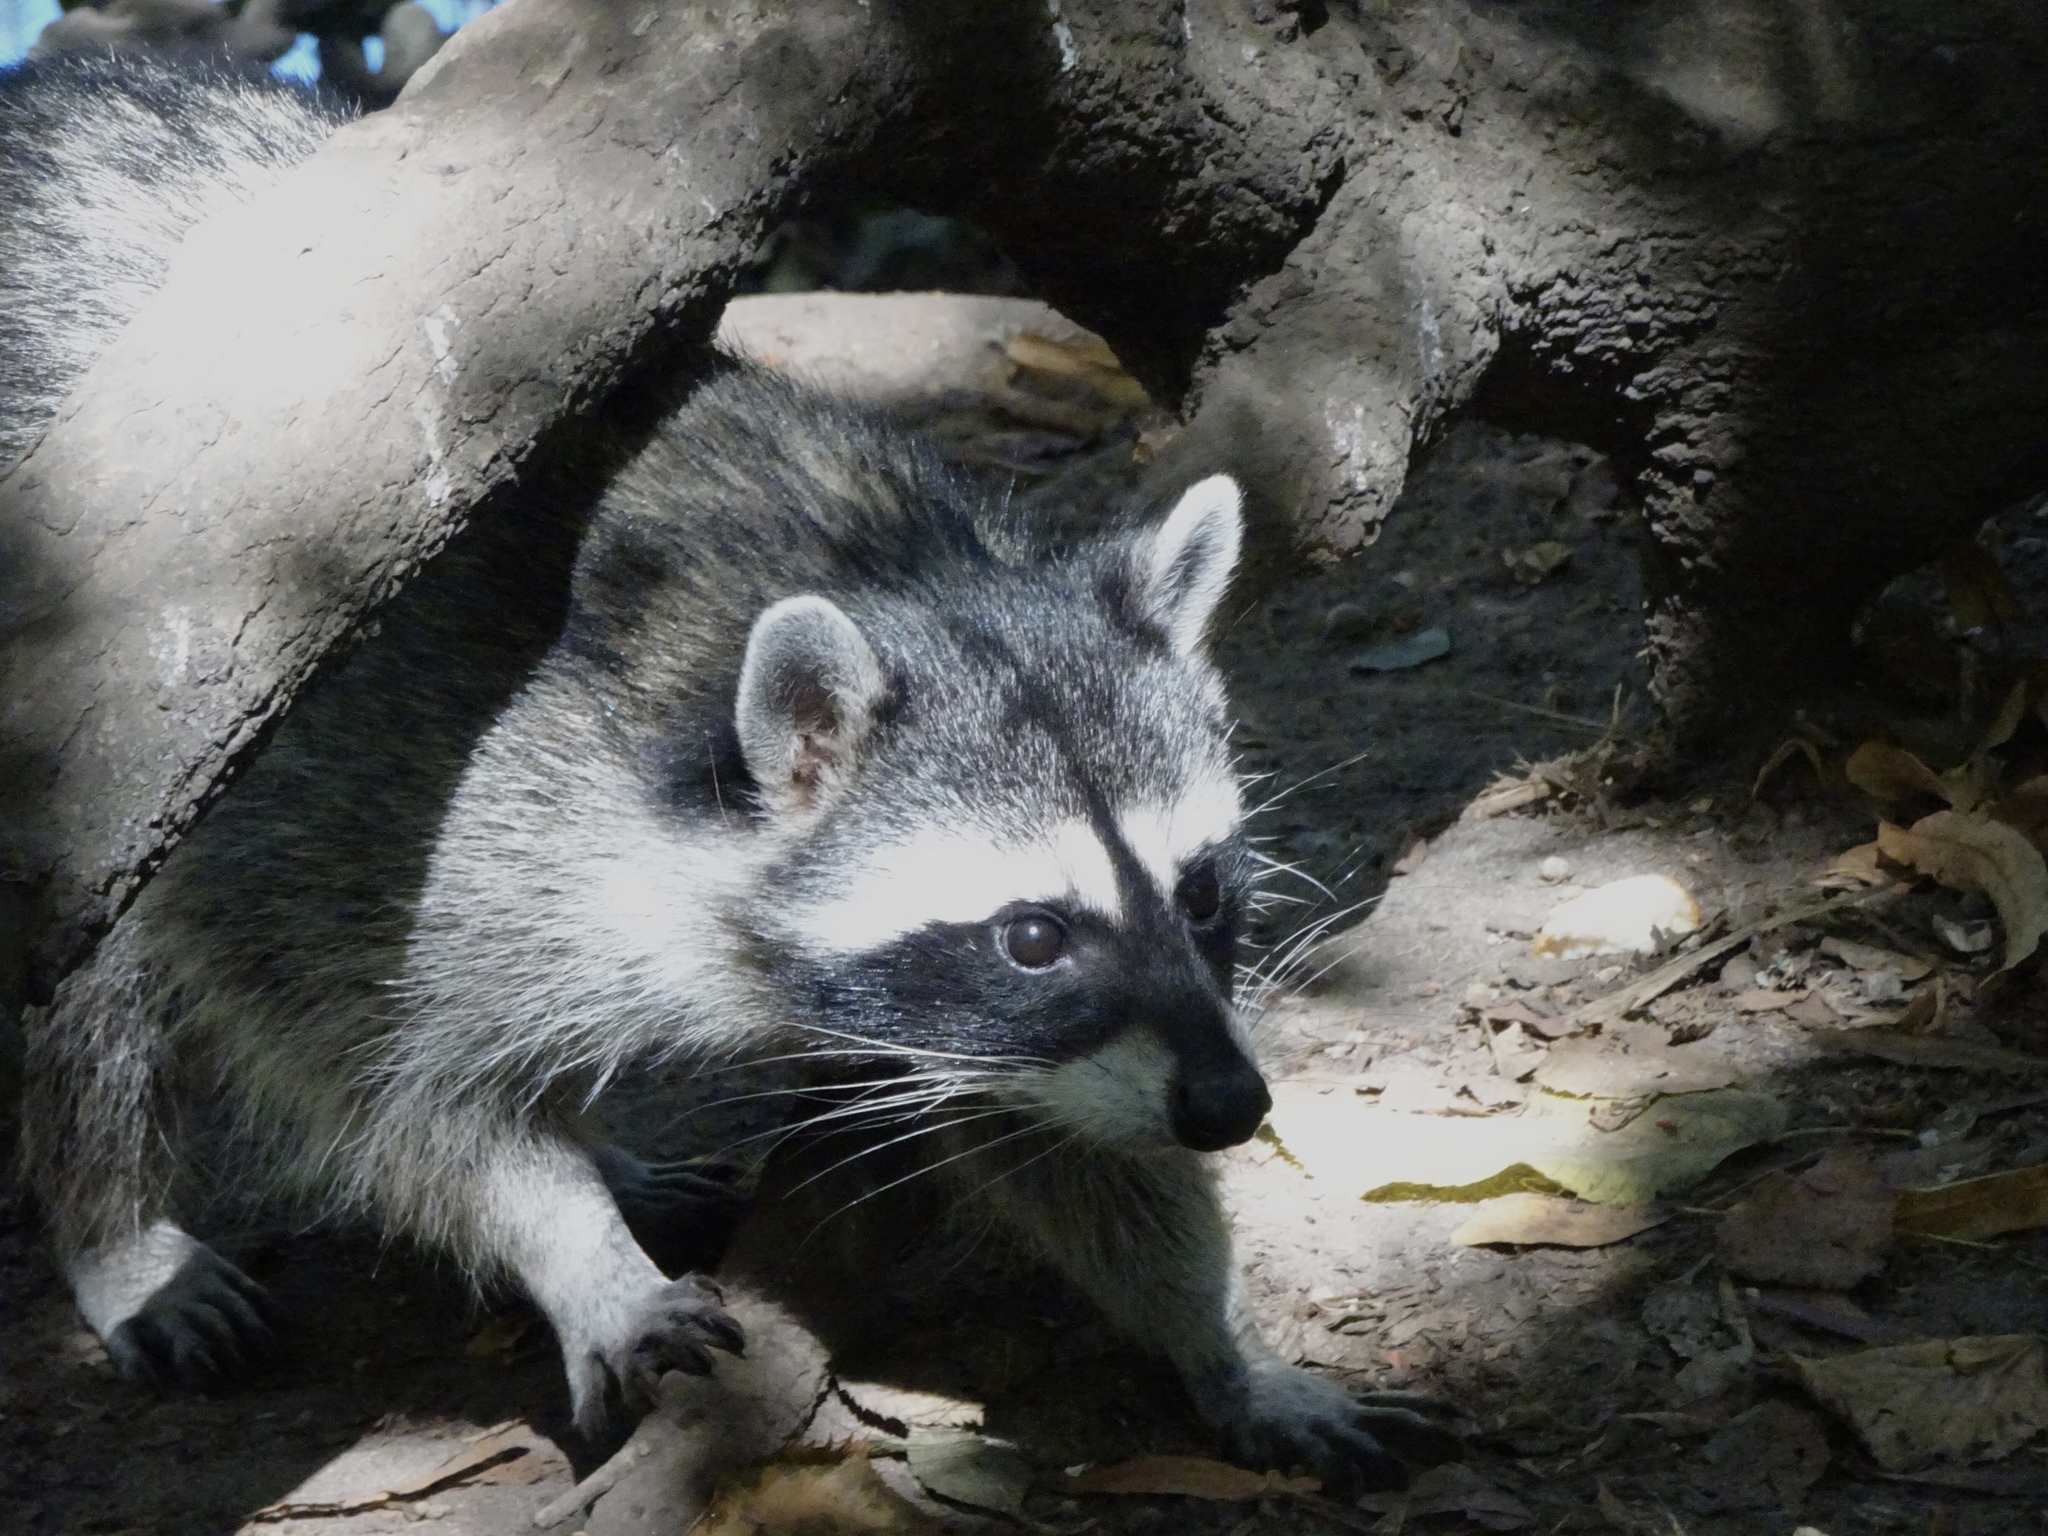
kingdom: Animalia
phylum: Chordata
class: Mammalia
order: Carnivora
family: Procyonidae
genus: Procyon
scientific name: Procyon lotor
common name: Raccoon
